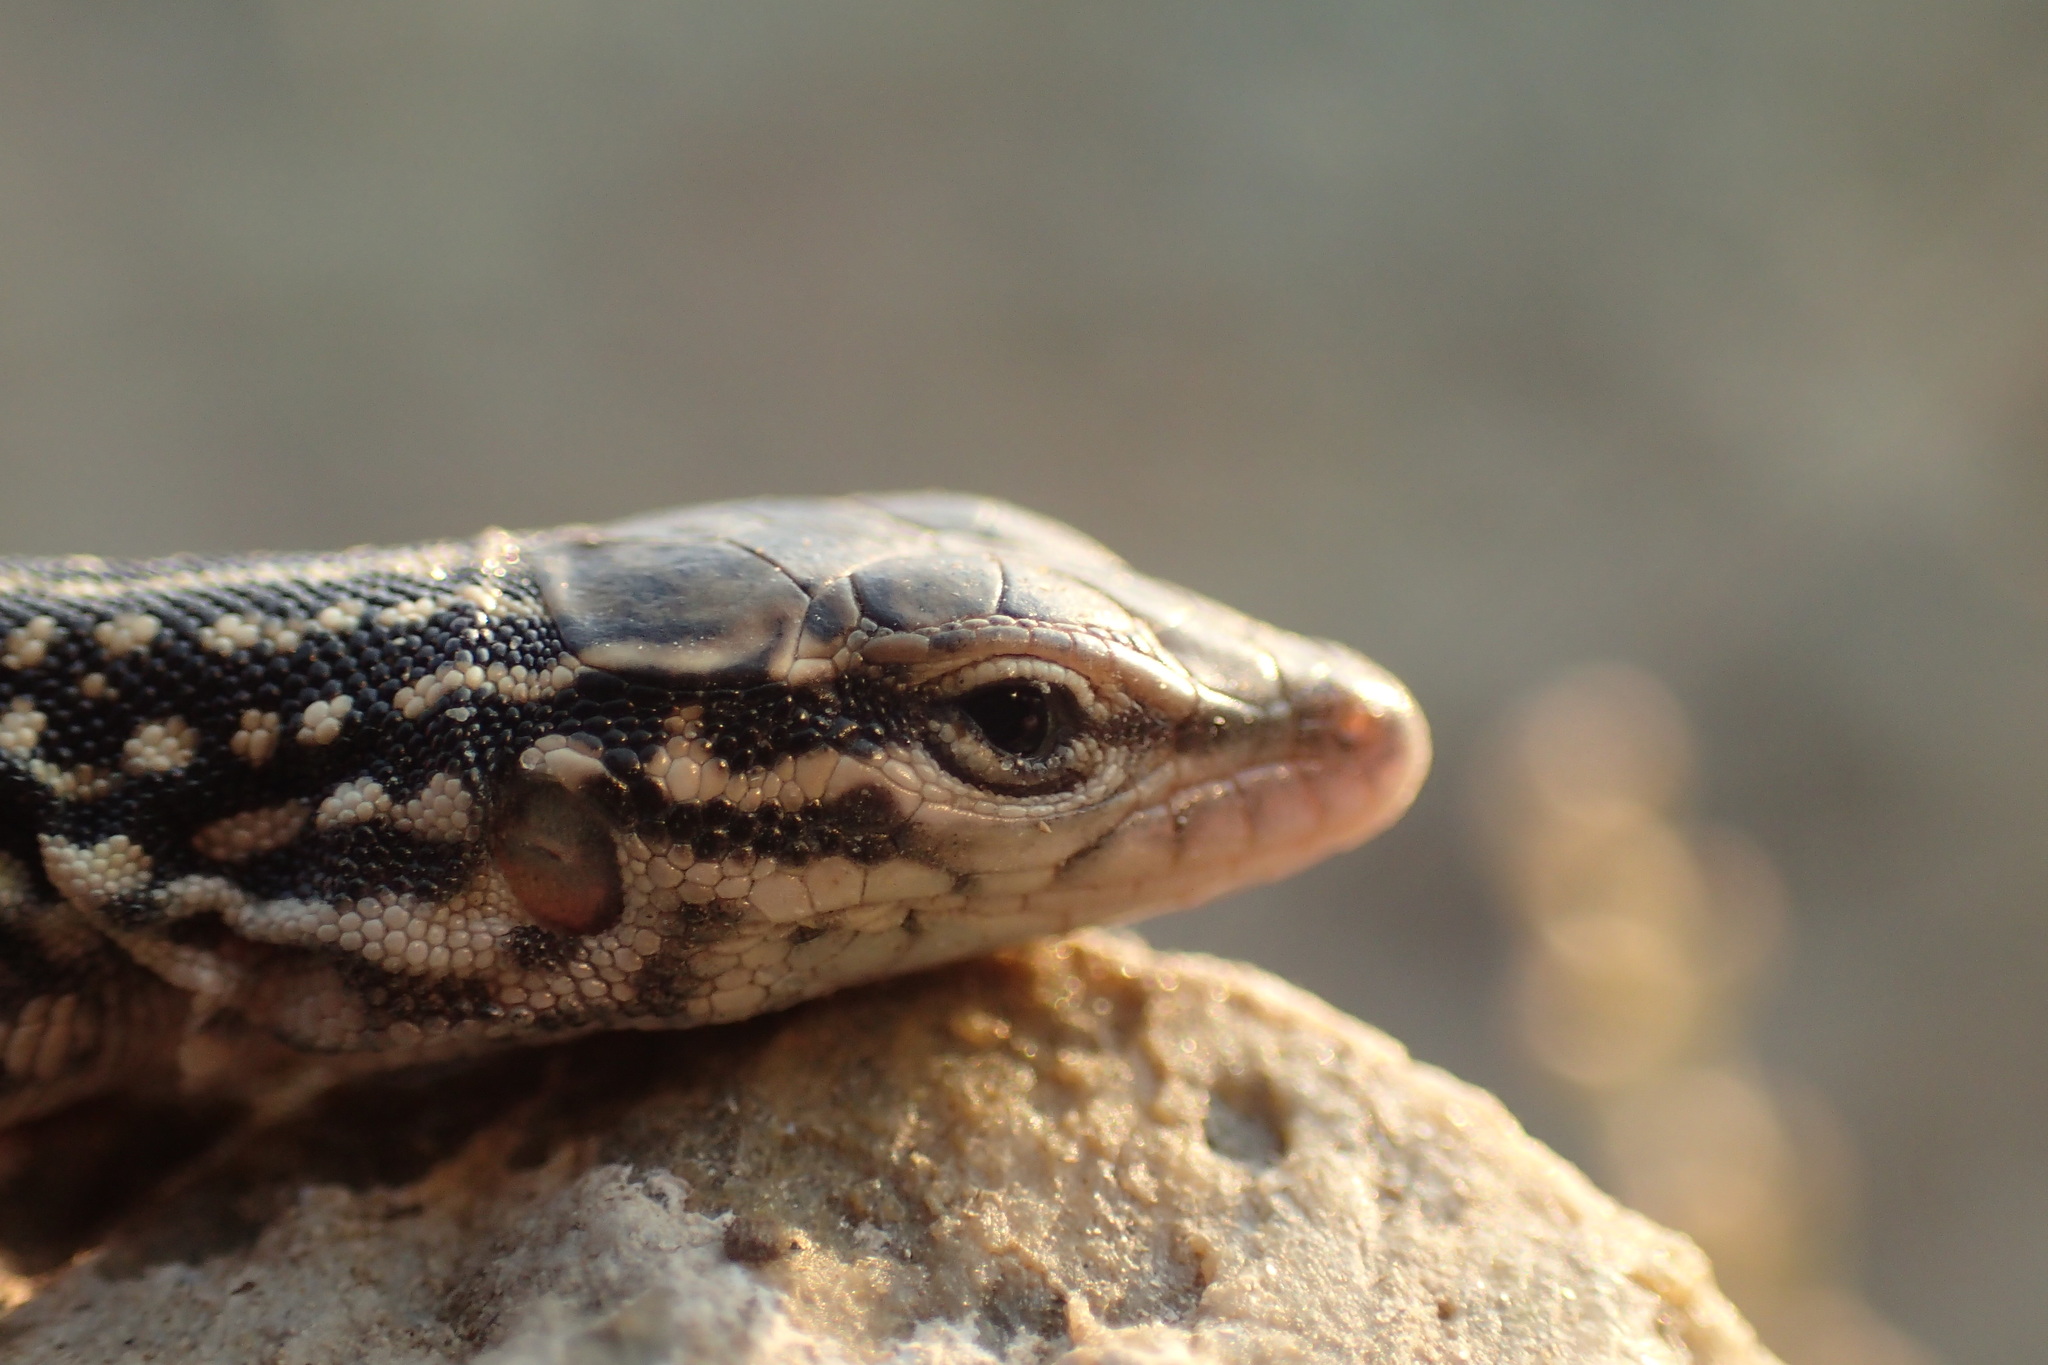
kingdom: Animalia
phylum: Chordata
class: Squamata
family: Lacertidae
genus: Eremias
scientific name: Eremias dzungarica
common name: Dzungarian racerunner
